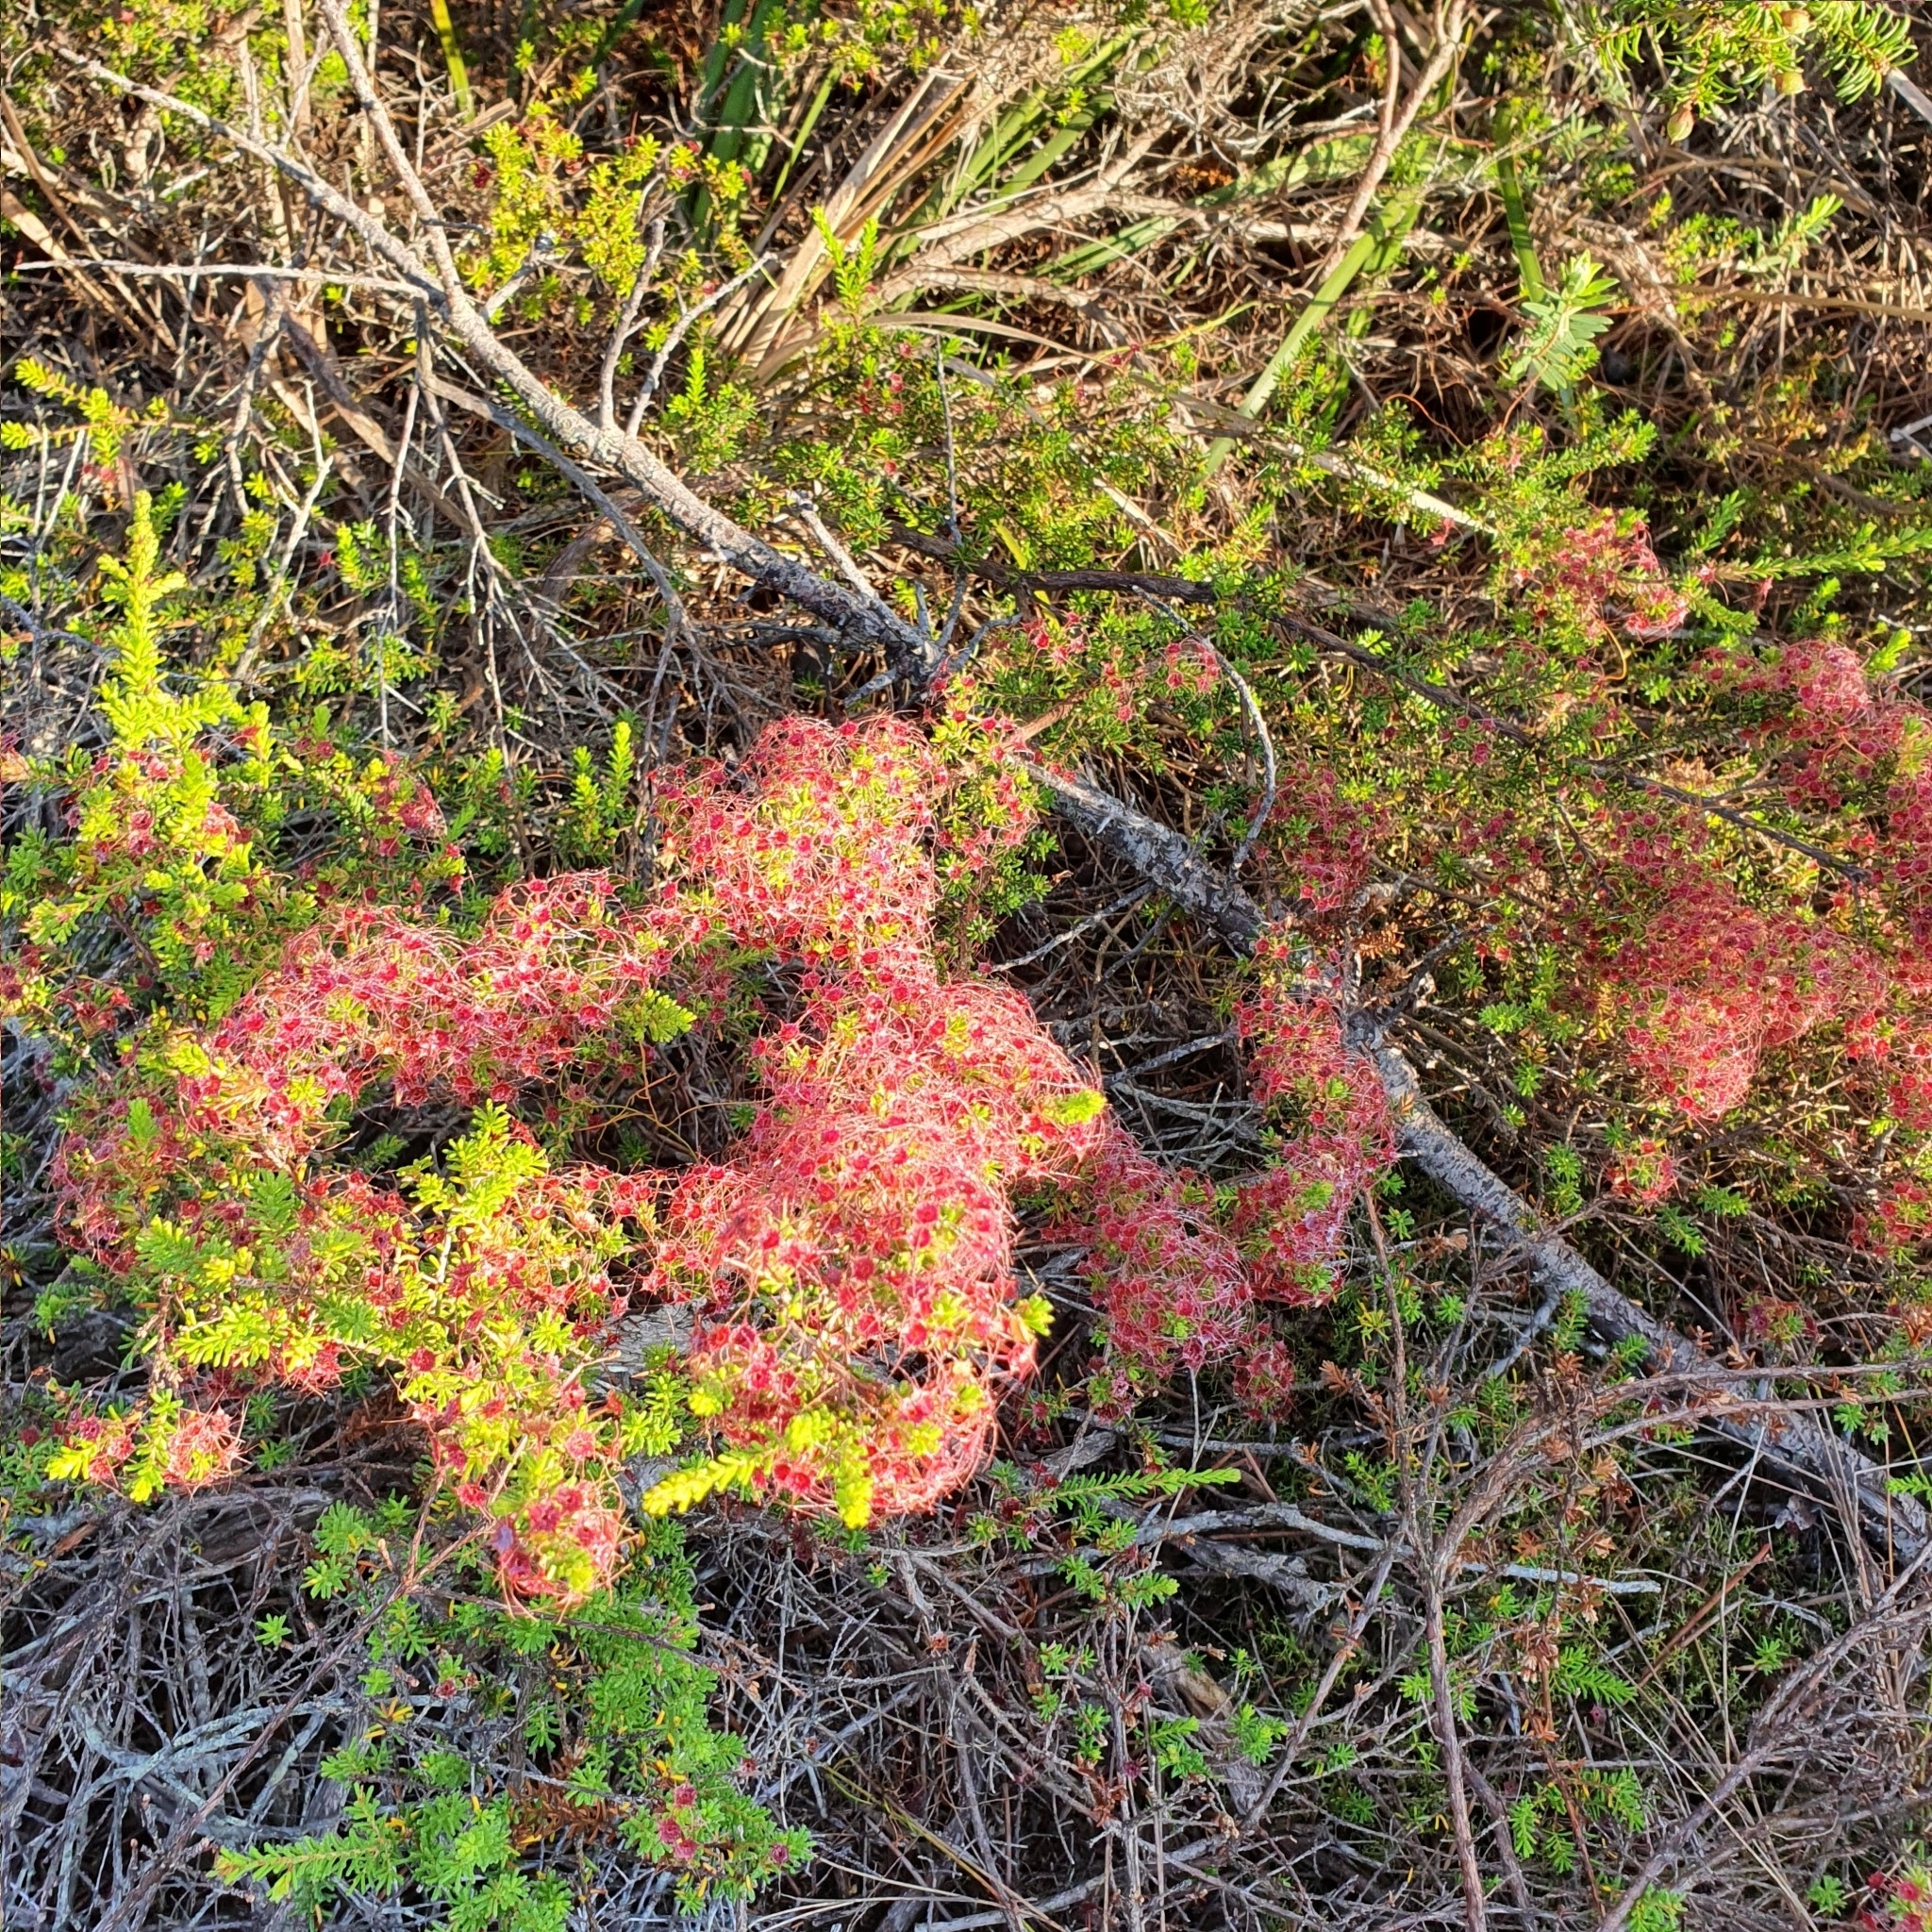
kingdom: Plantae
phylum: Tracheophyta
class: Magnoliopsida
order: Myrtales
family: Myrtaceae
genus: Calytrix
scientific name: Calytrix tetragona
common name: Common fringe myrtle
